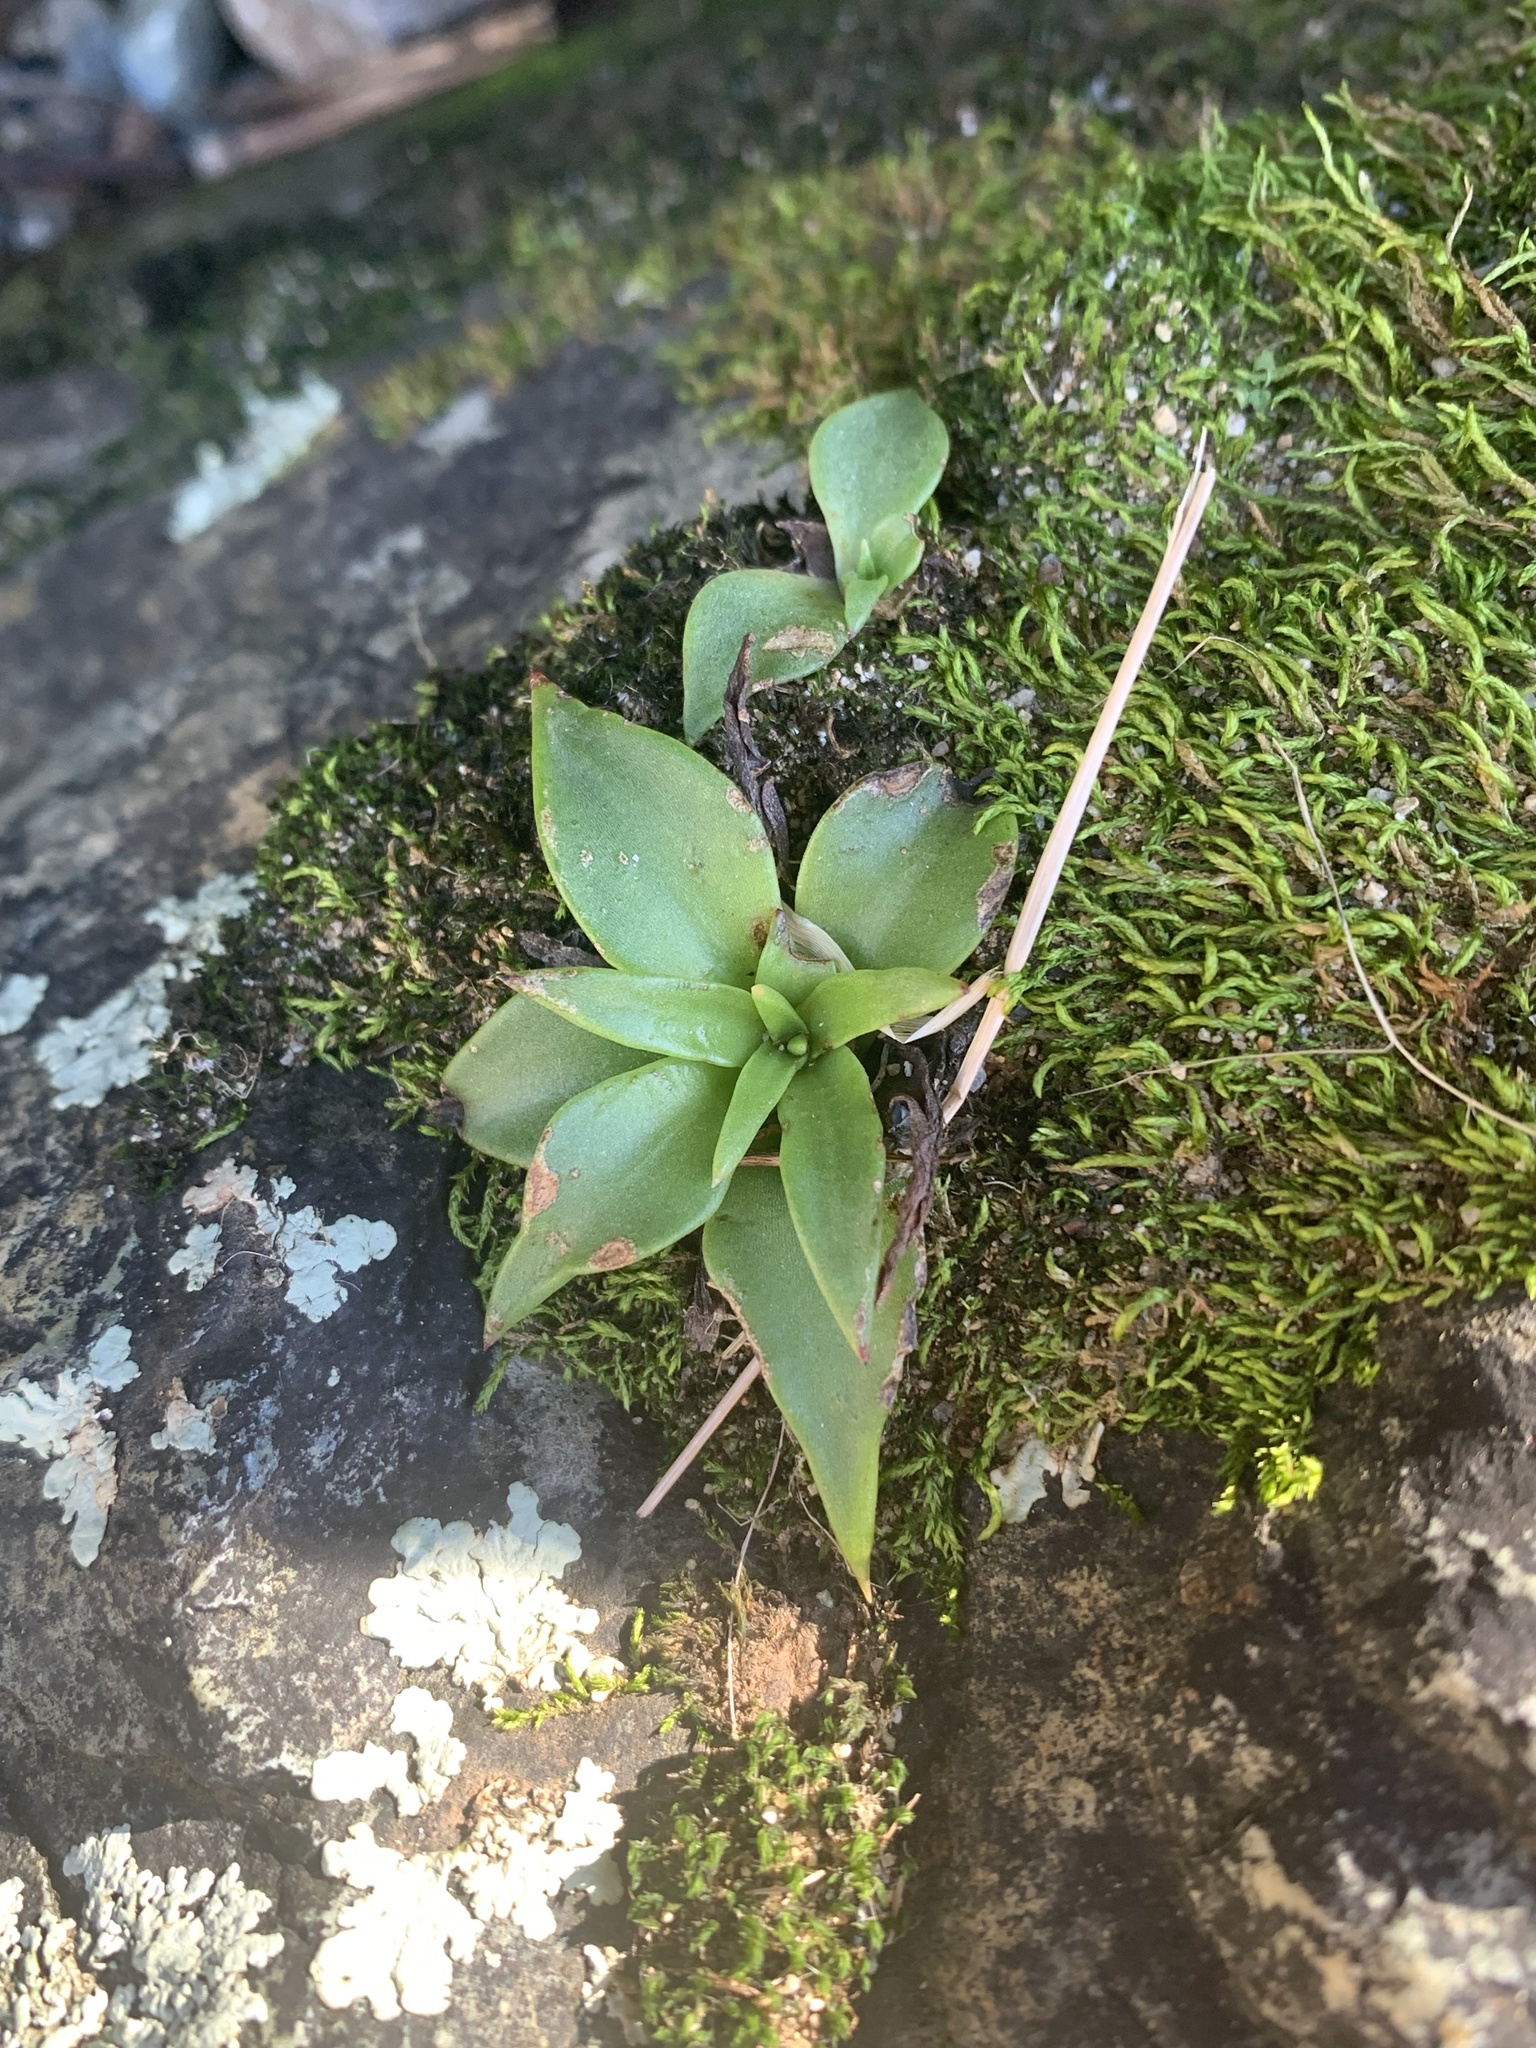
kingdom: Plantae
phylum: Tracheophyta
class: Magnoliopsida
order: Saxifragales
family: Crassulaceae
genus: Dudleya
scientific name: Dudleya cymosa
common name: Canyon dudleya
